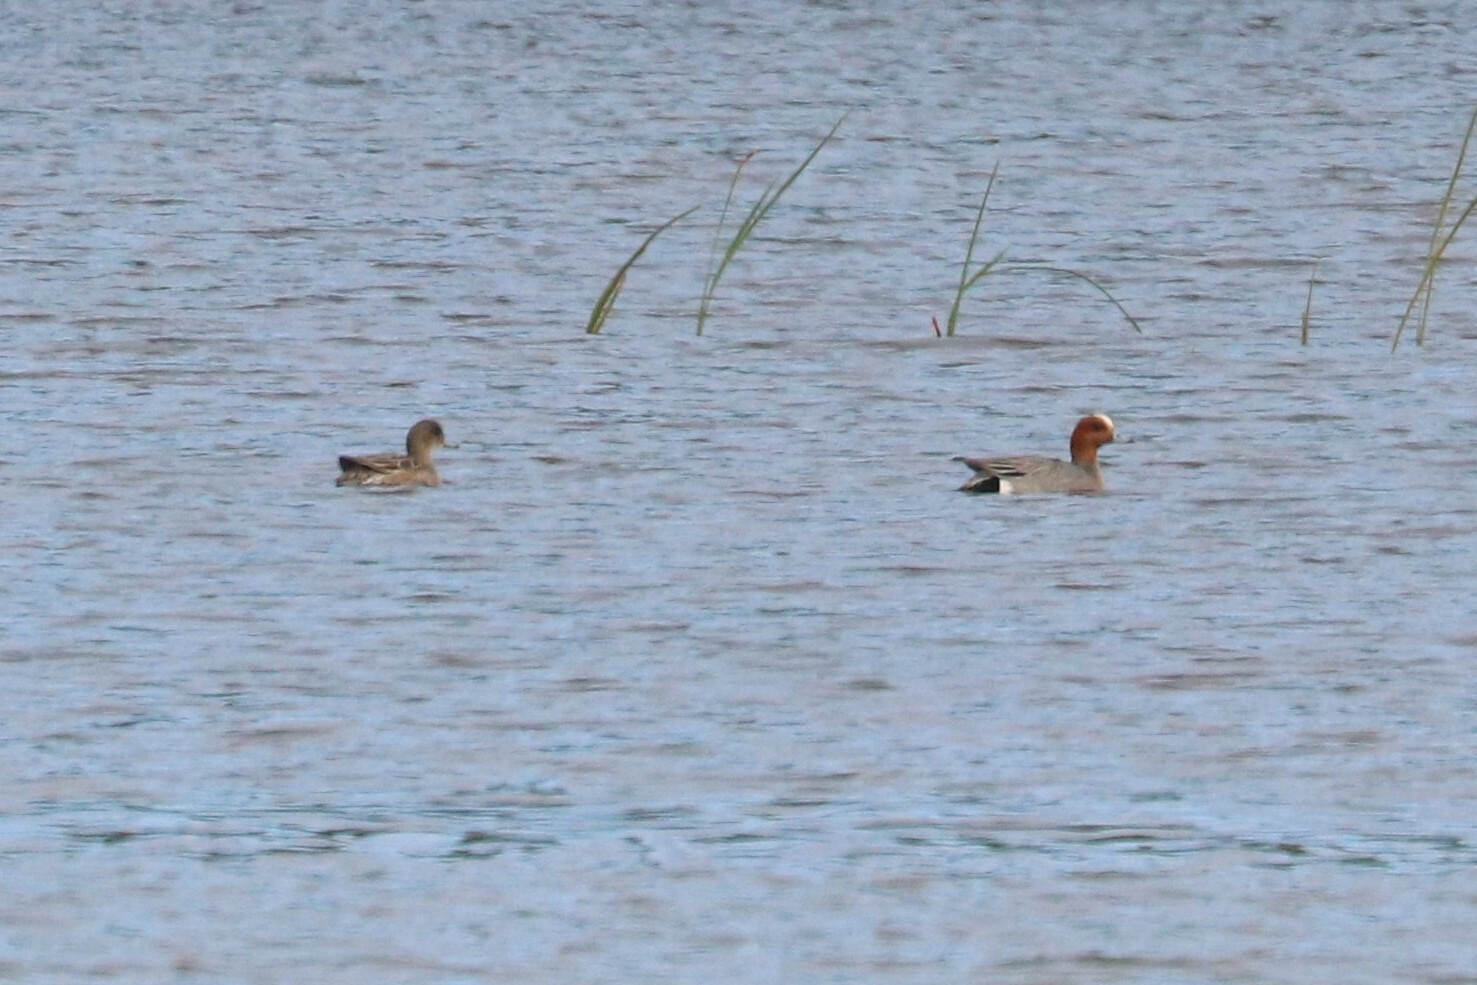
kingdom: Animalia
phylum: Chordata
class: Aves
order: Anseriformes
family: Anatidae
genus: Mareca
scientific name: Mareca penelope
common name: Eurasian wigeon
